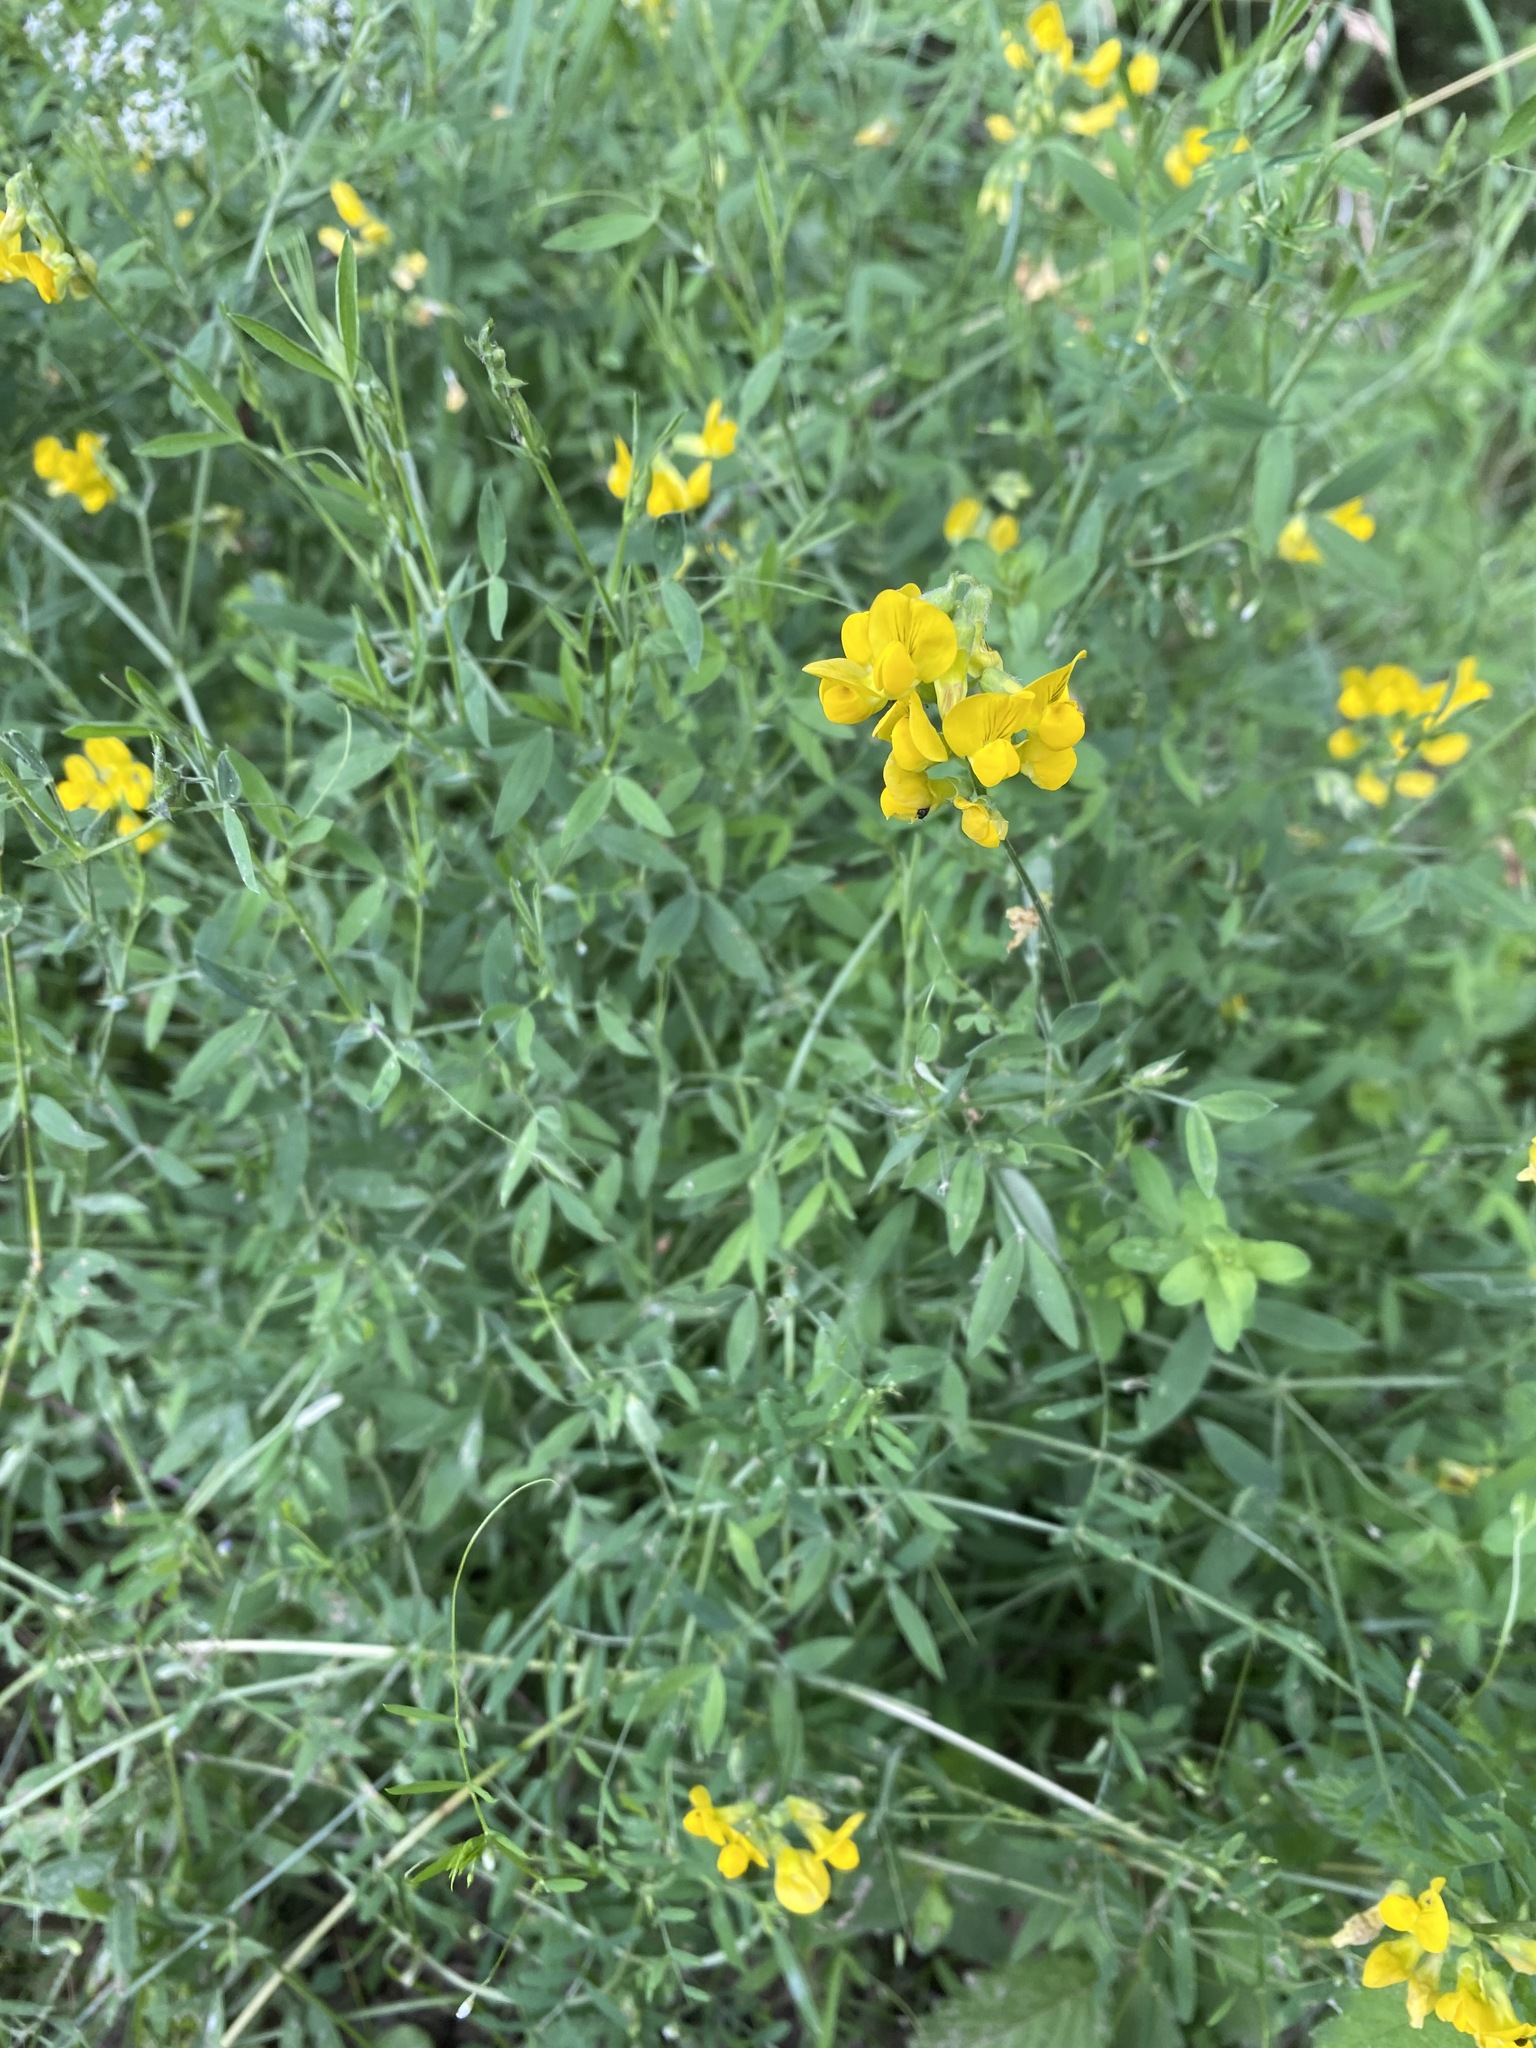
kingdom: Plantae
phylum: Tracheophyta
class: Magnoliopsida
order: Fabales
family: Fabaceae
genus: Lathyrus
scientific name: Lathyrus pratensis
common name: Meadow vetchling
